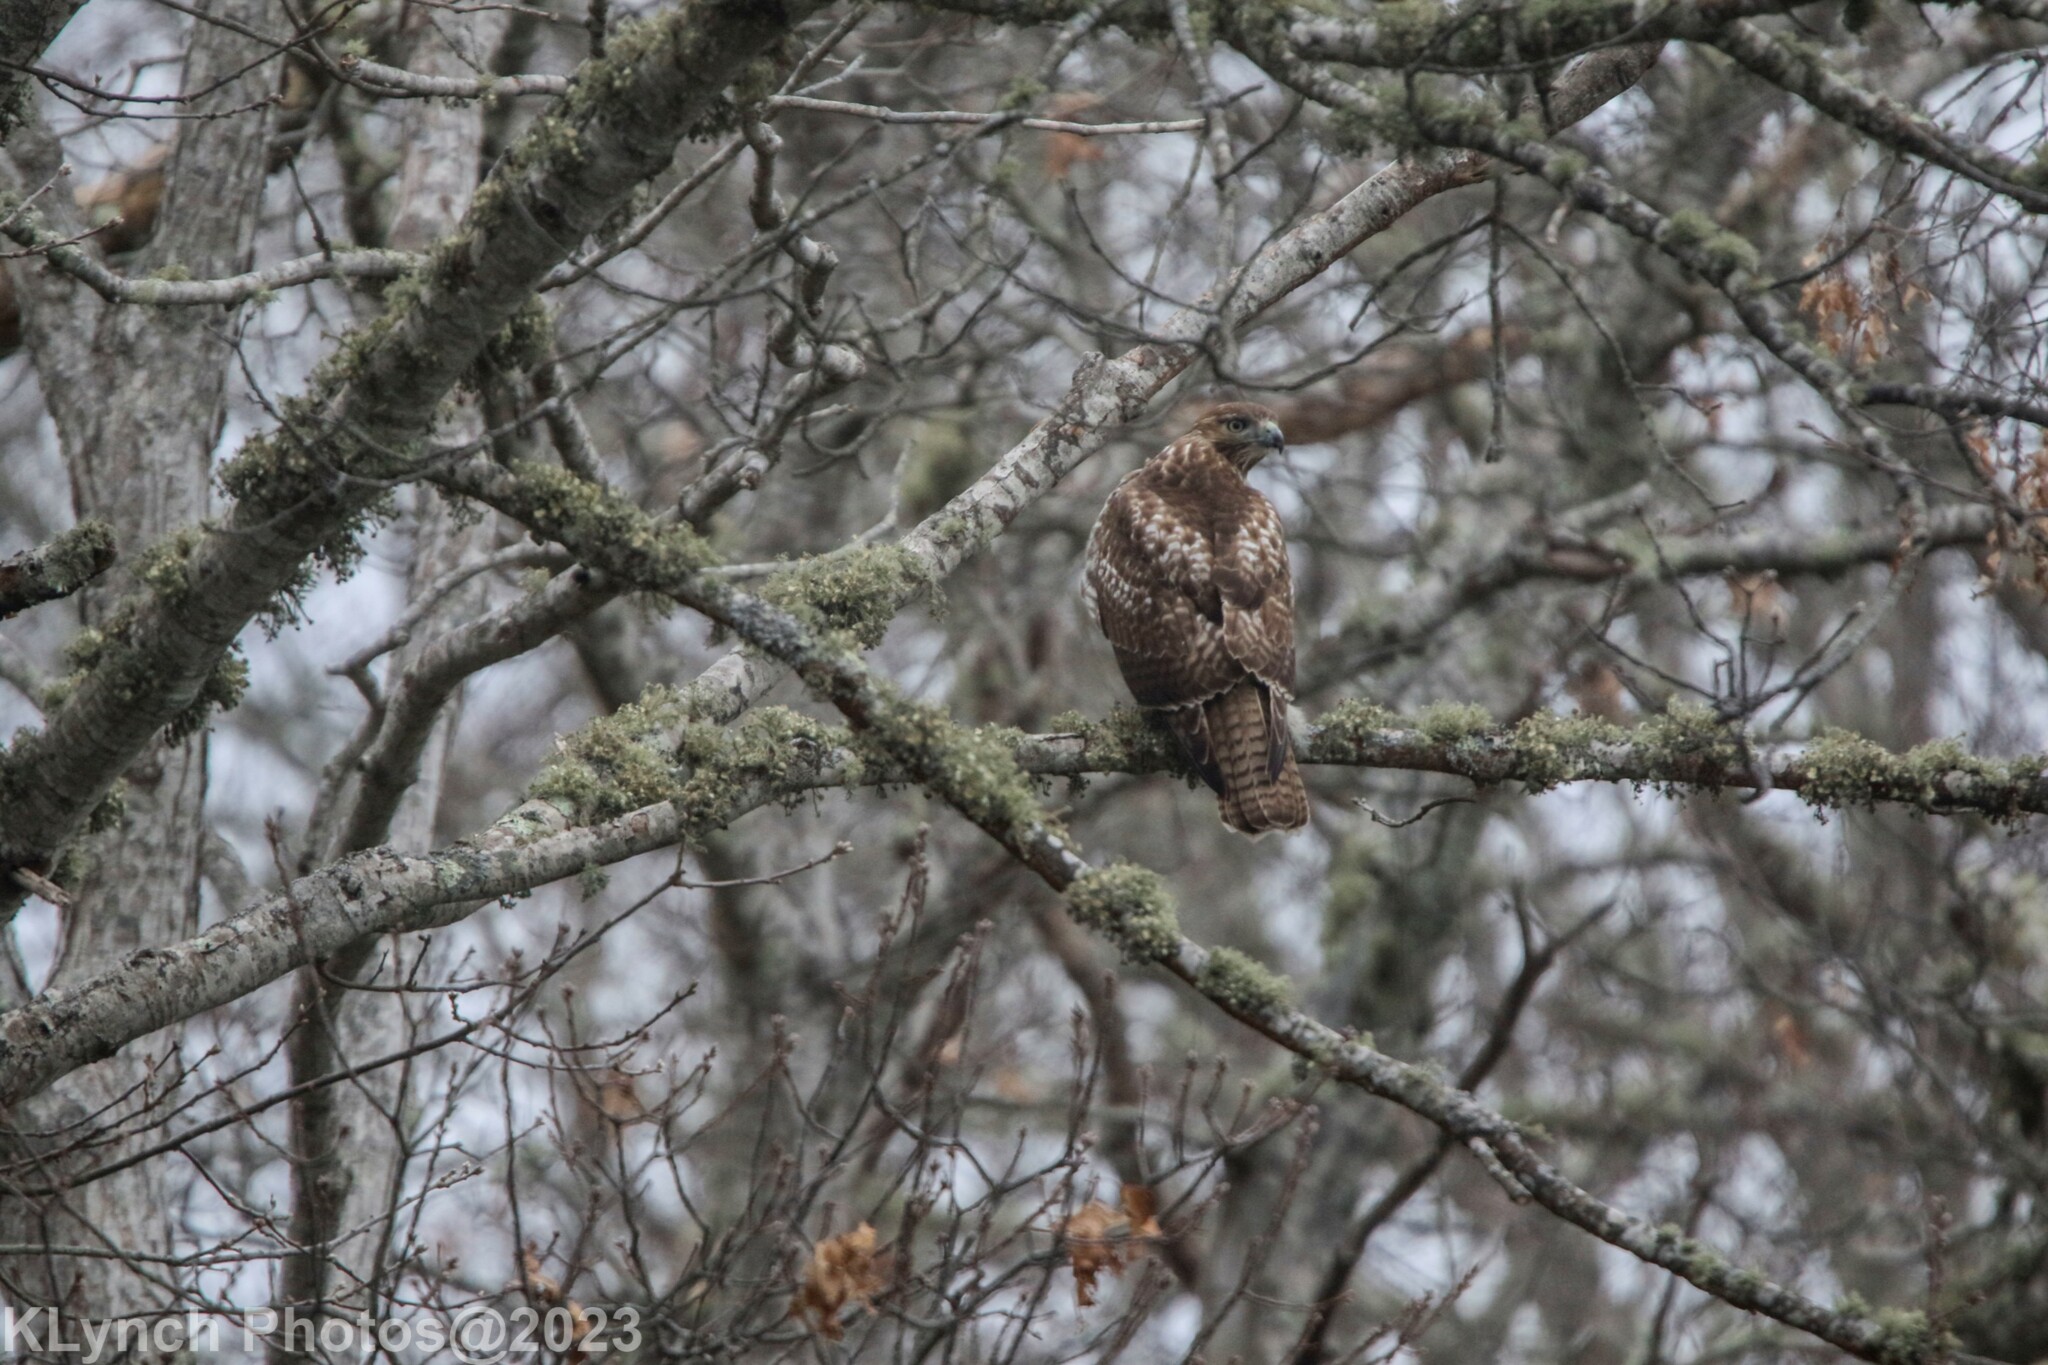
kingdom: Animalia
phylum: Chordata
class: Aves
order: Accipitriformes
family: Accipitridae
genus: Buteo
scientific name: Buteo jamaicensis
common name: Red-tailed hawk
